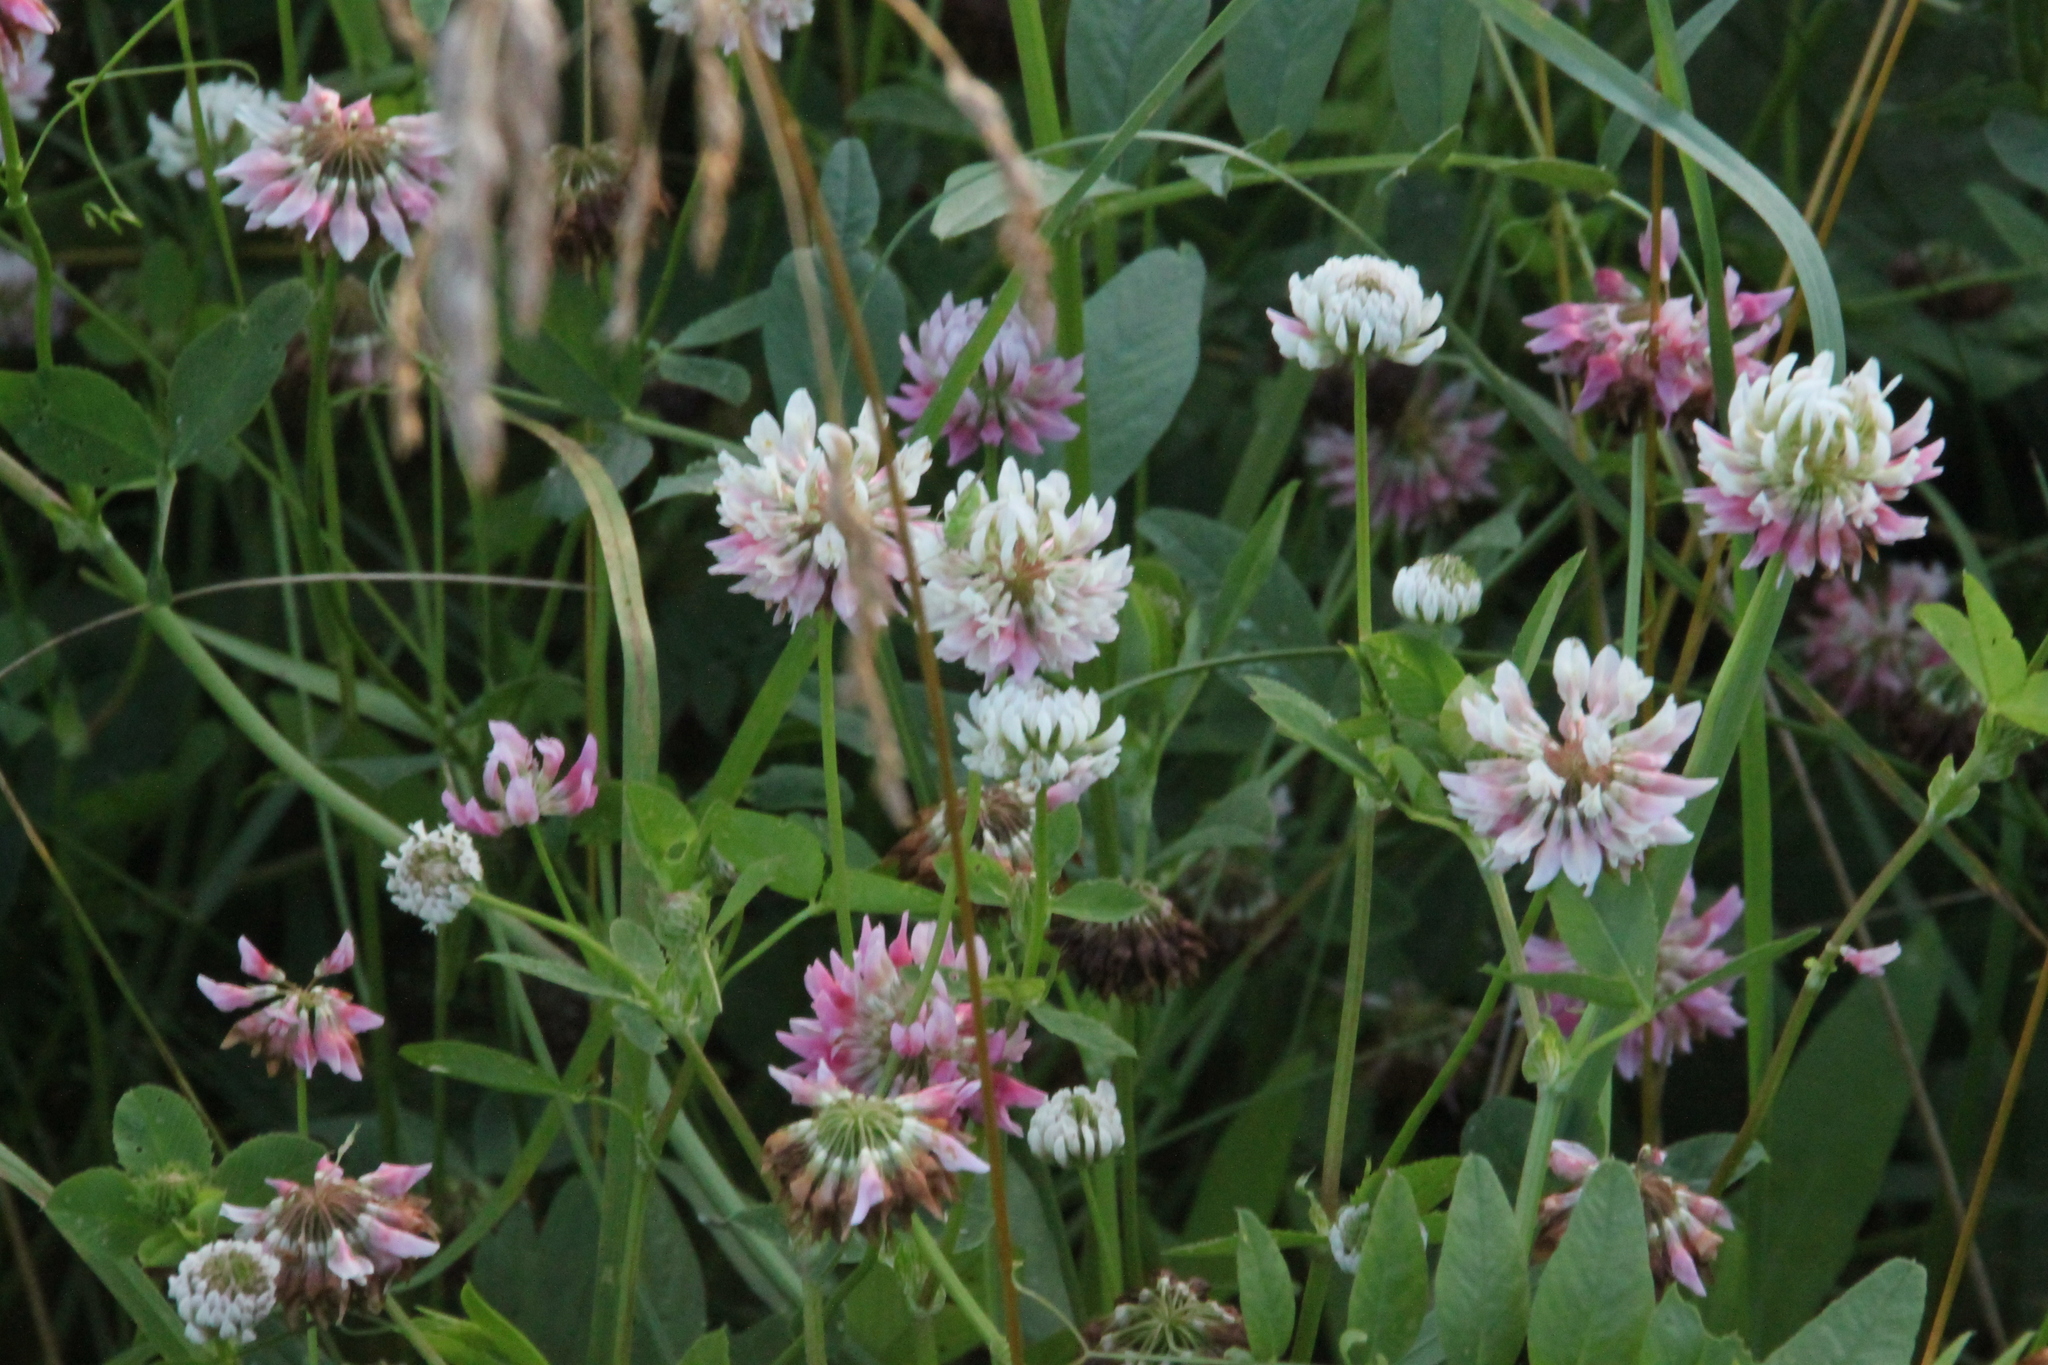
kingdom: Plantae
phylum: Tracheophyta
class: Magnoliopsida
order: Fabales
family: Fabaceae
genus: Trifolium
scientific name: Trifolium hybridum
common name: Alsike clover
